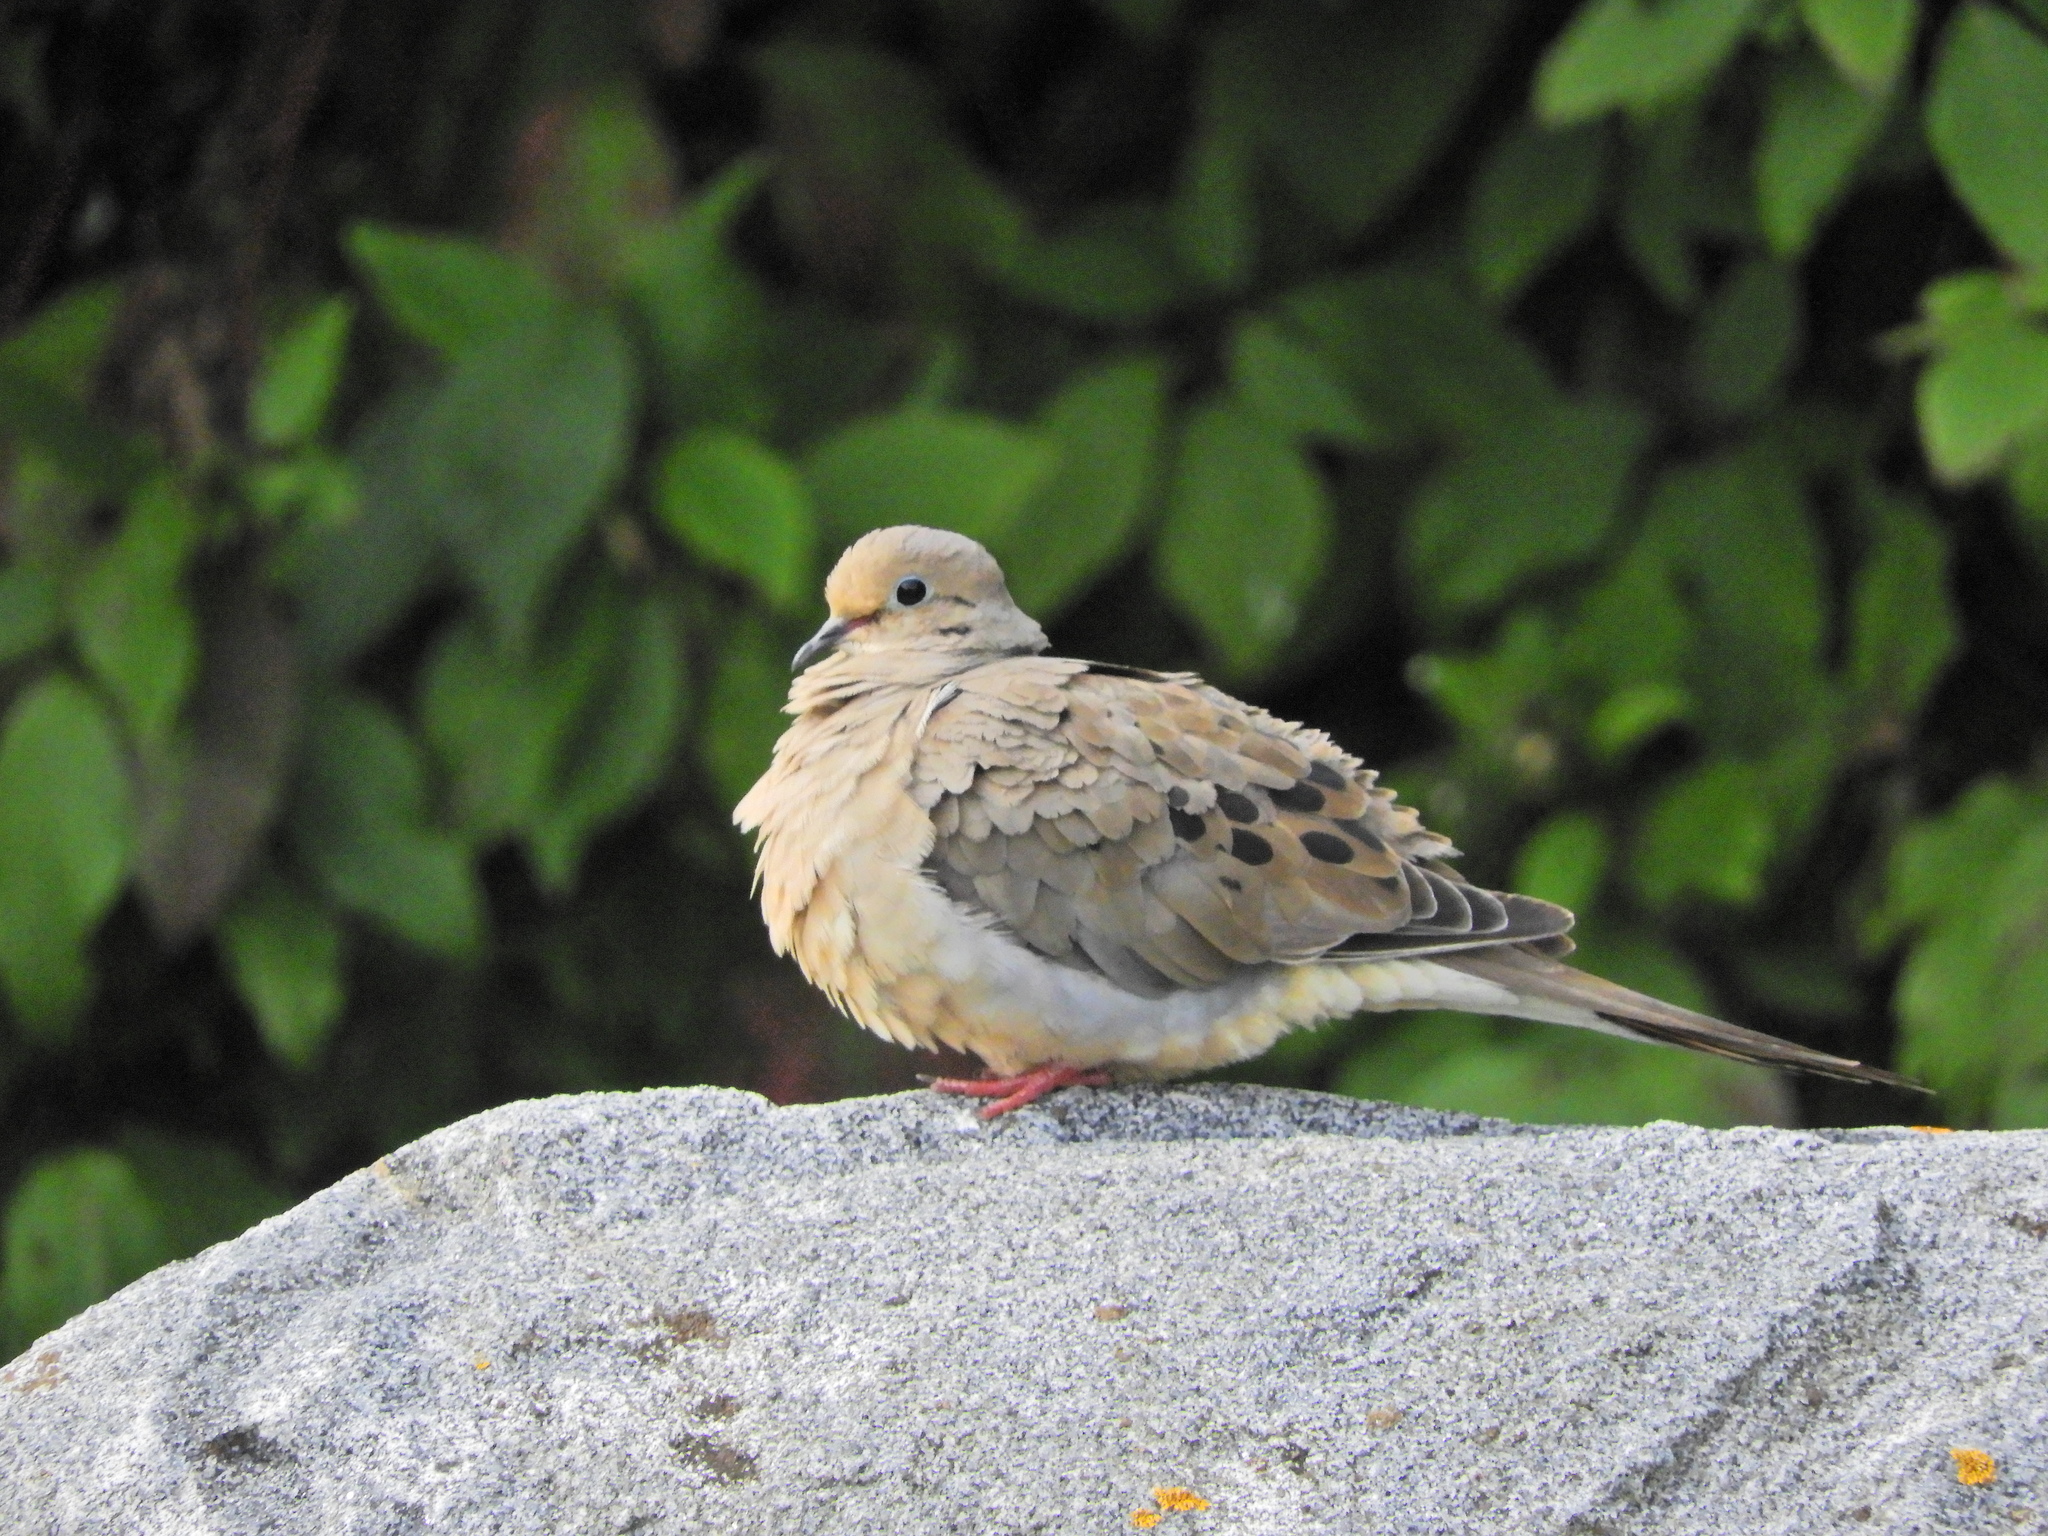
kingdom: Animalia
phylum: Chordata
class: Aves
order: Columbiformes
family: Columbidae
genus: Zenaida
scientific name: Zenaida macroura
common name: Mourning dove
